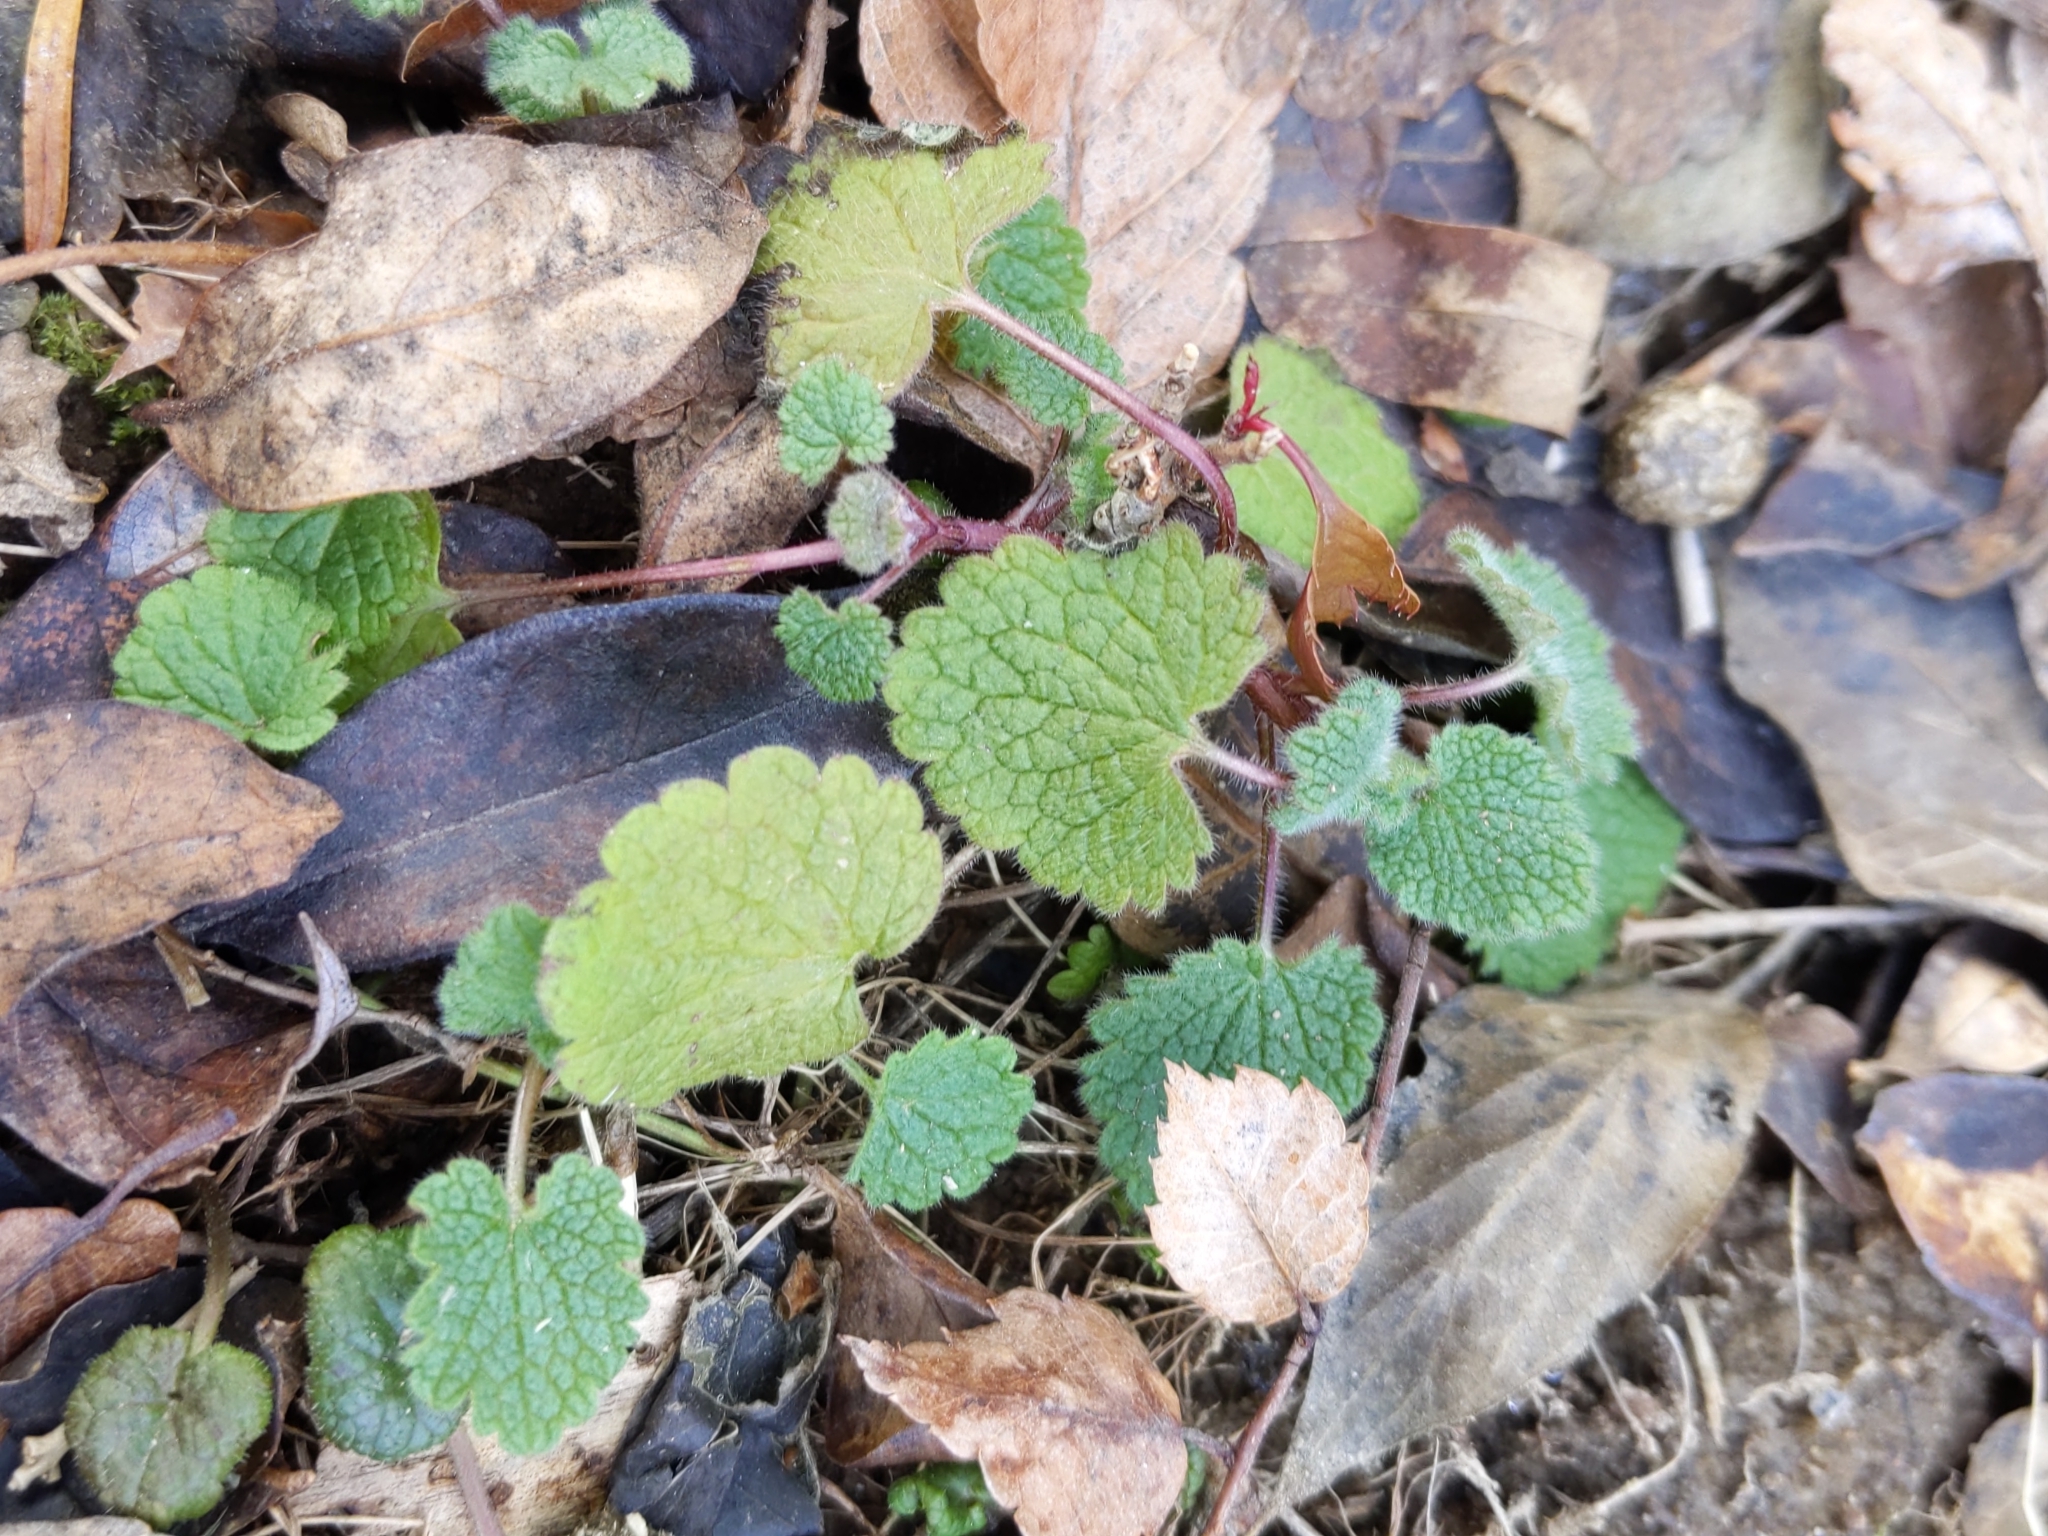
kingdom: Plantae
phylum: Tracheophyta
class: Magnoliopsida
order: Lamiales
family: Lamiaceae
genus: Lamium
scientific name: Lamium purpureum
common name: Red dead-nettle
